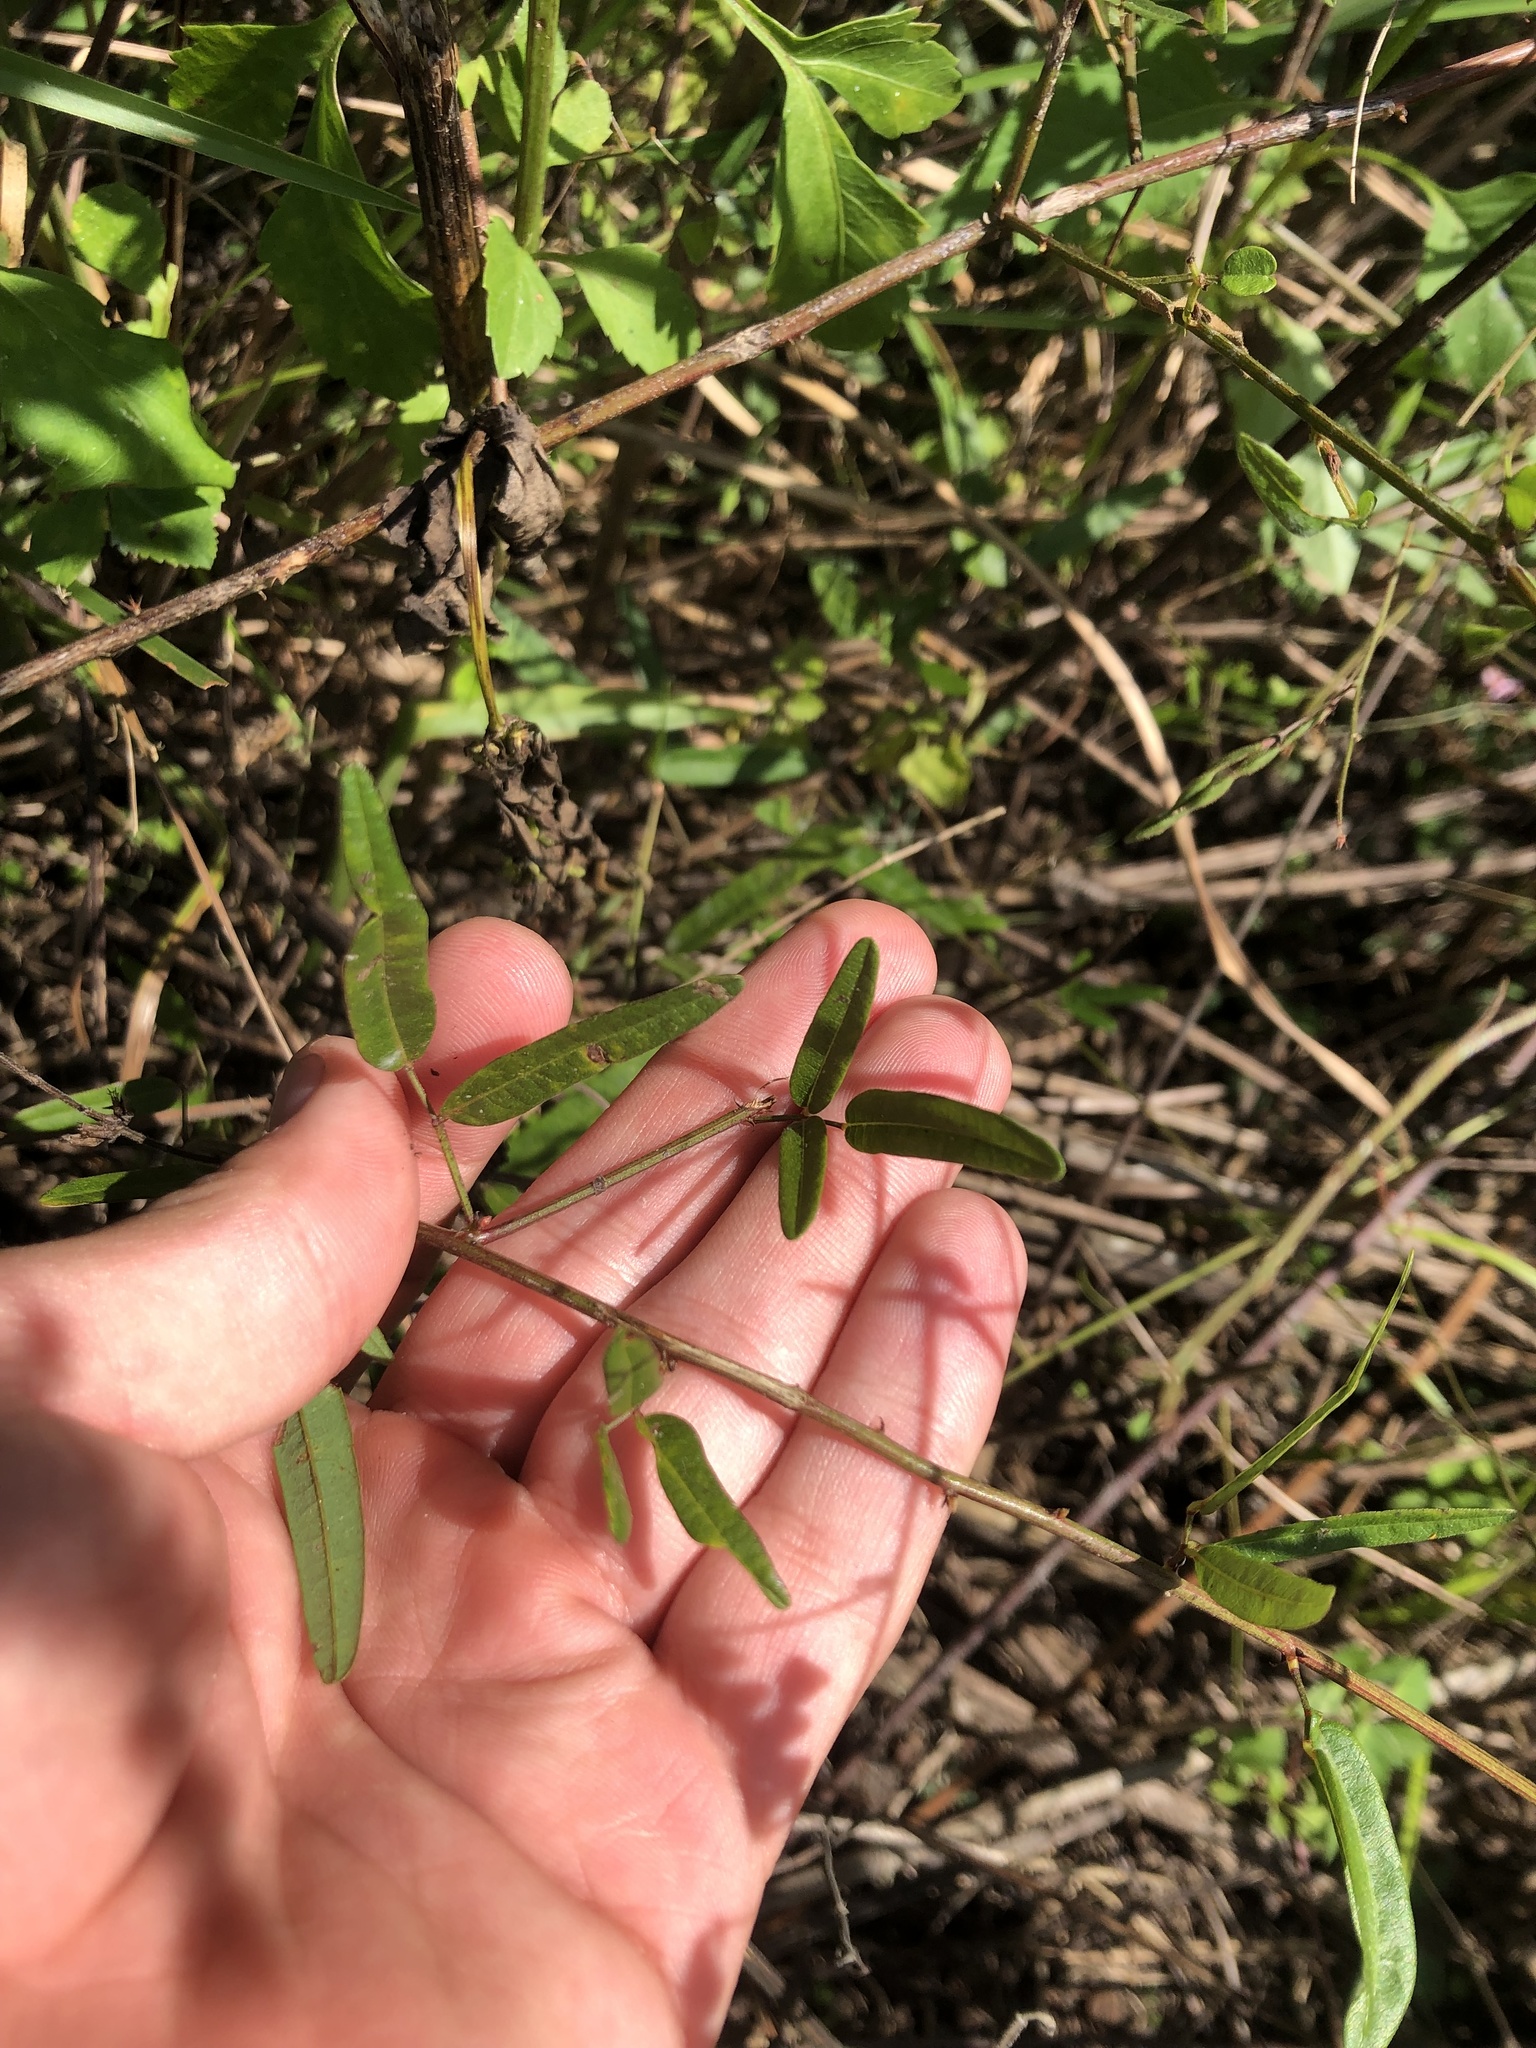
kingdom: Plantae
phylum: Tracheophyta
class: Magnoliopsida
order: Fabales
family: Fabaceae
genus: Desmodium
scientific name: Desmodium paniculatum
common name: Panicled tick-clover
